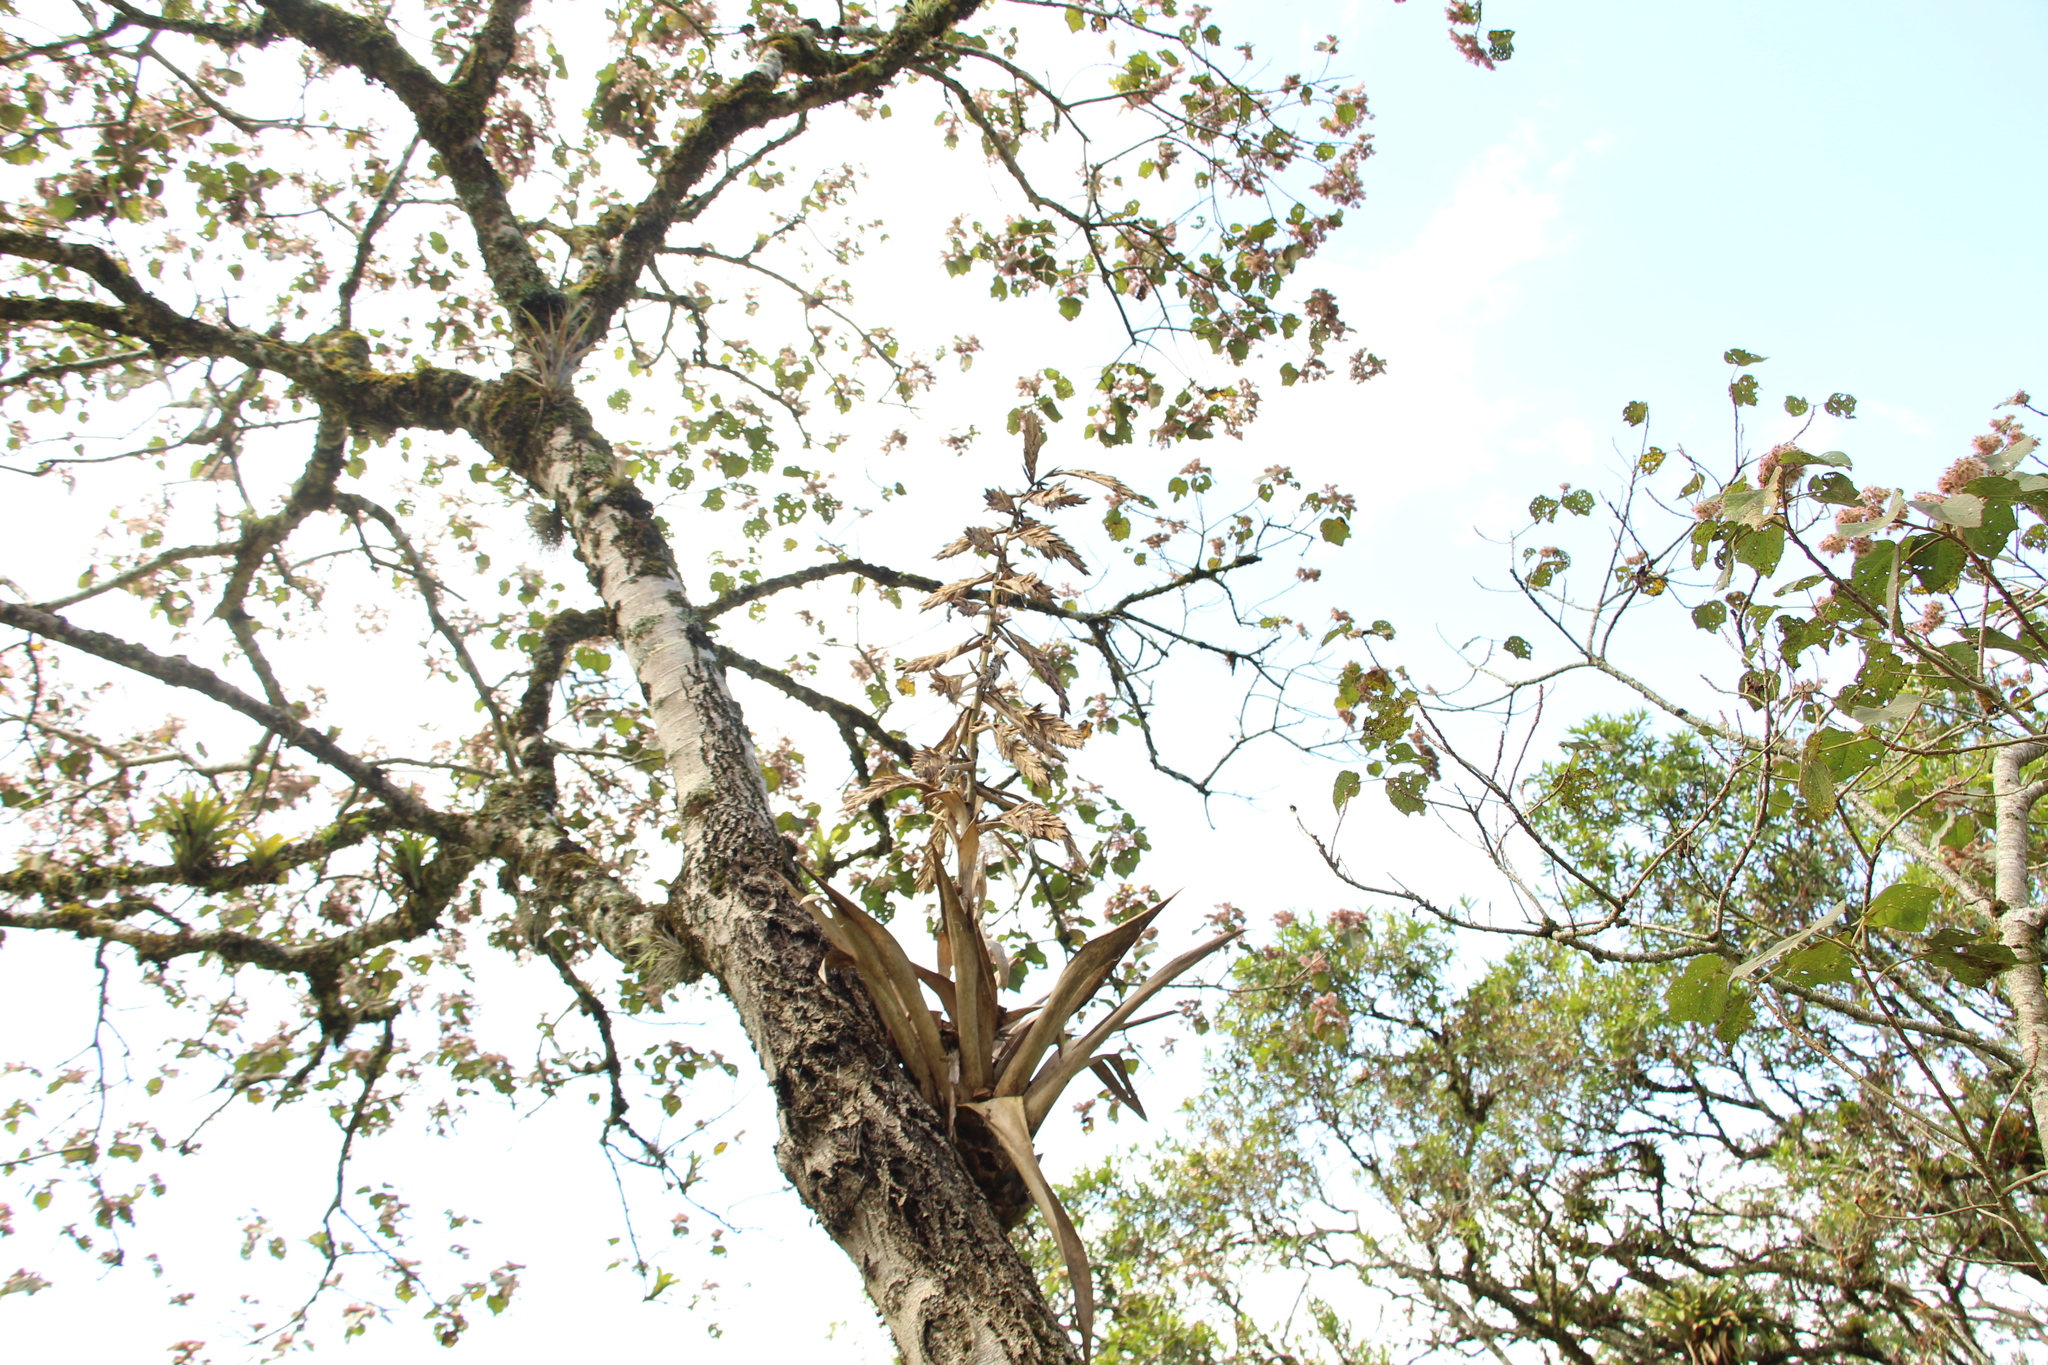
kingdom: Plantae
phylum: Tracheophyta
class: Liliopsida
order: Poales
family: Bromeliaceae
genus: Tillandsia
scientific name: Tillandsia fendleri
